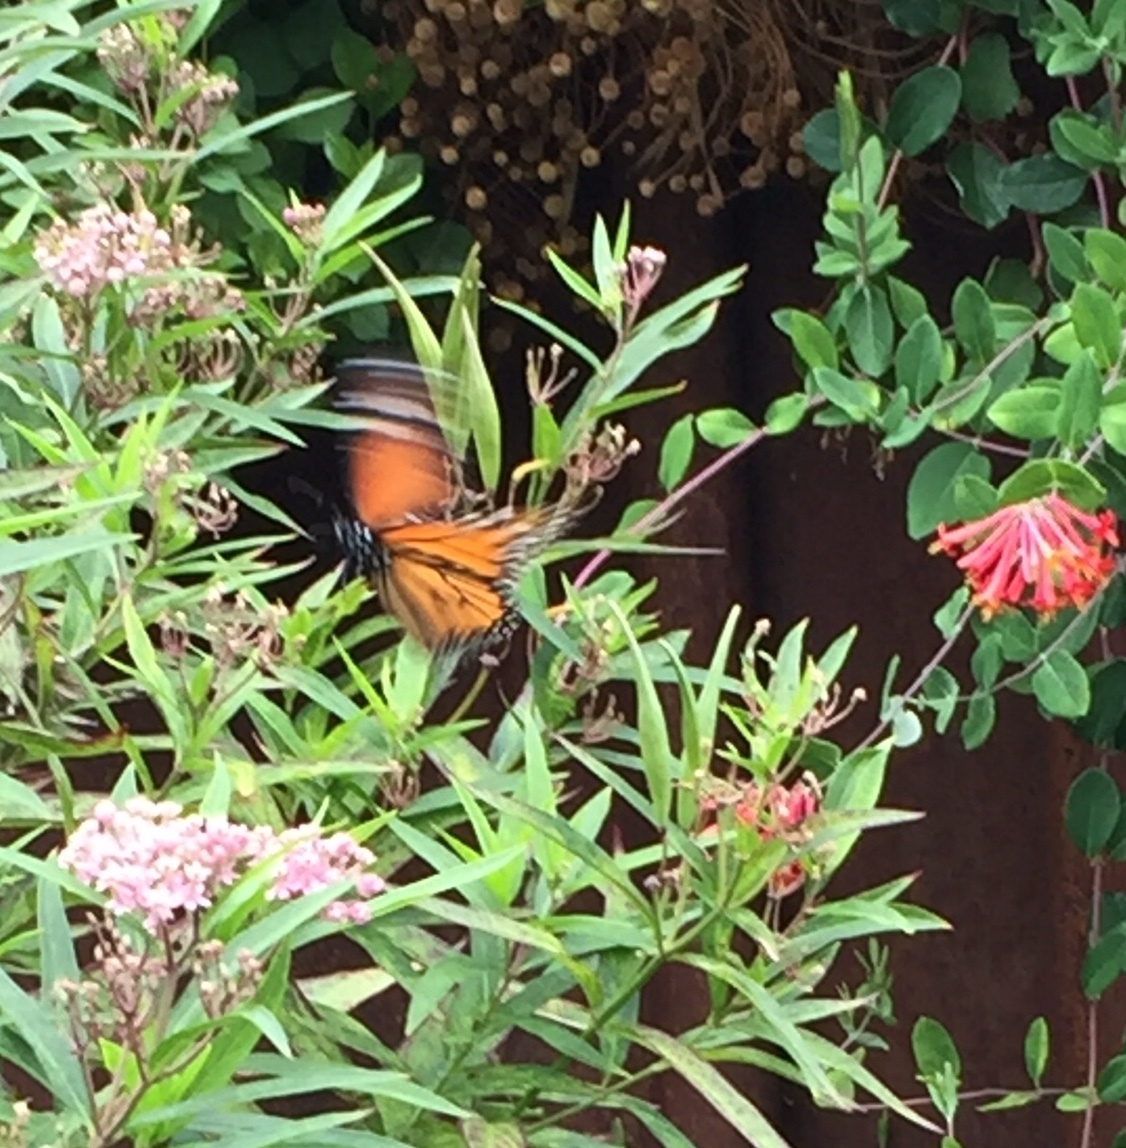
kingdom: Animalia
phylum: Arthropoda
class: Insecta
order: Lepidoptera
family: Nymphalidae
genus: Danaus
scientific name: Danaus plexippus
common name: Monarch
